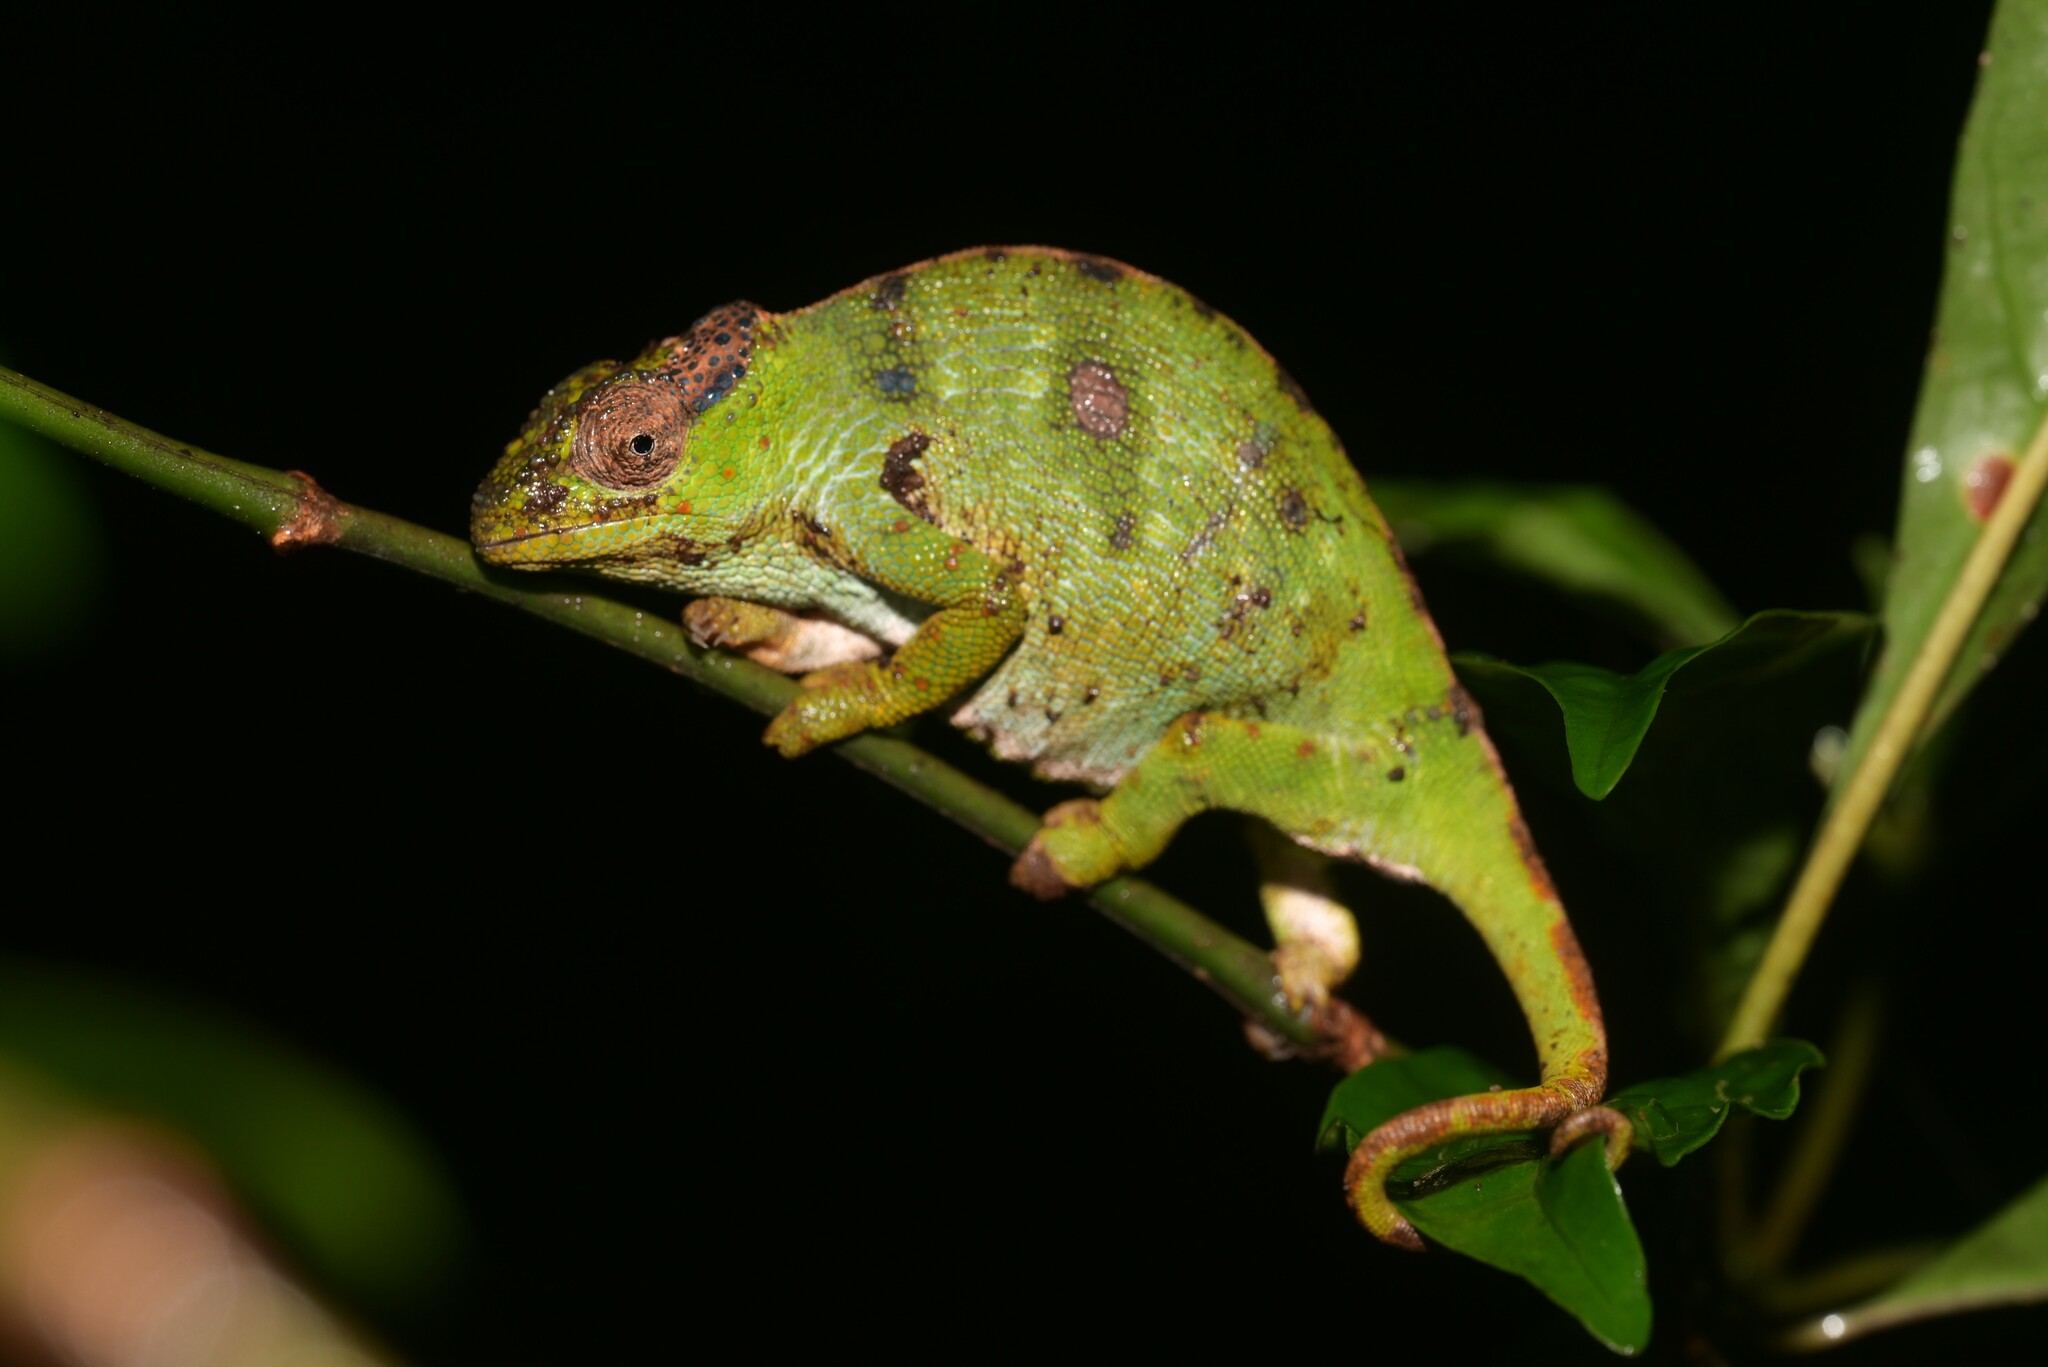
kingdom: Animalia
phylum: Chordata
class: Squamata
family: Chamaeleonidae
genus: Kinyongia
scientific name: Kinyongia msuyae
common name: Msuya’s forest chameleon
